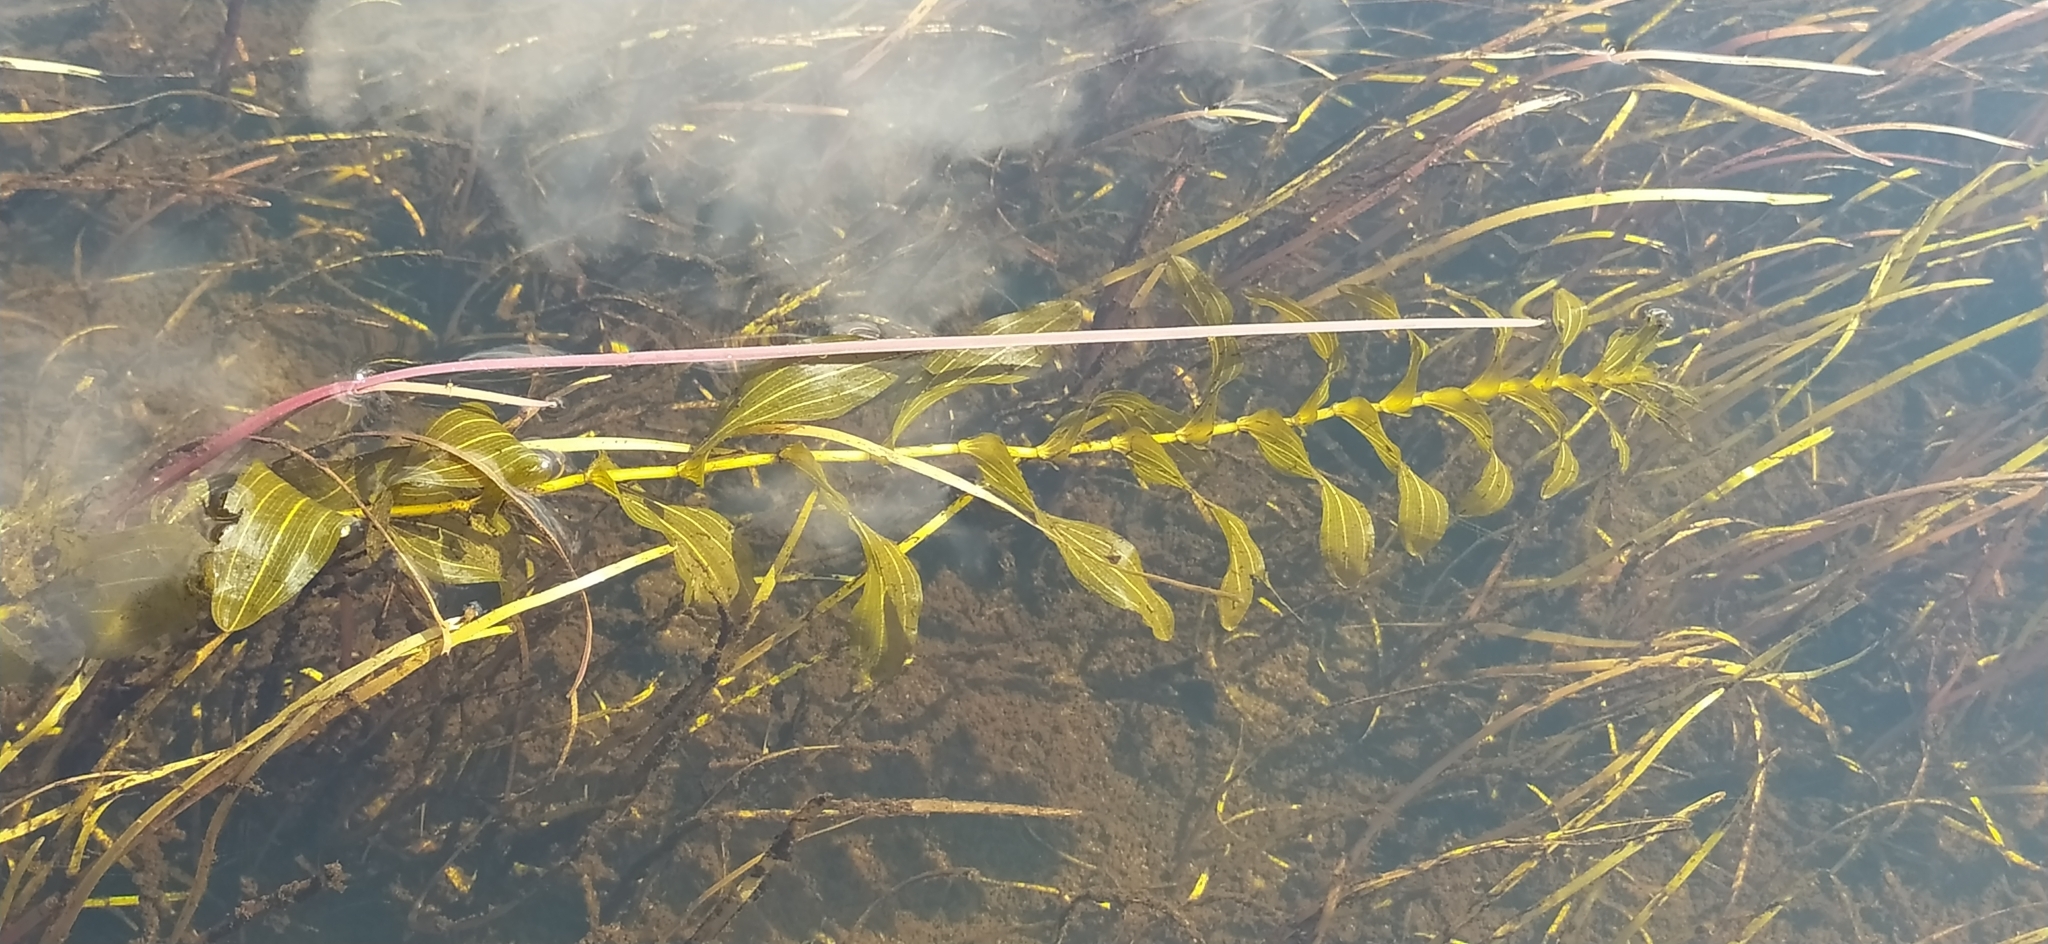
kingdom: Plantae
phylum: Tracheophyta
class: Liliopsida
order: Alismatales
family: Potamogetonaceae
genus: Potamogeton
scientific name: Potamogeton perfoliatus
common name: Perfoliate pondweed
